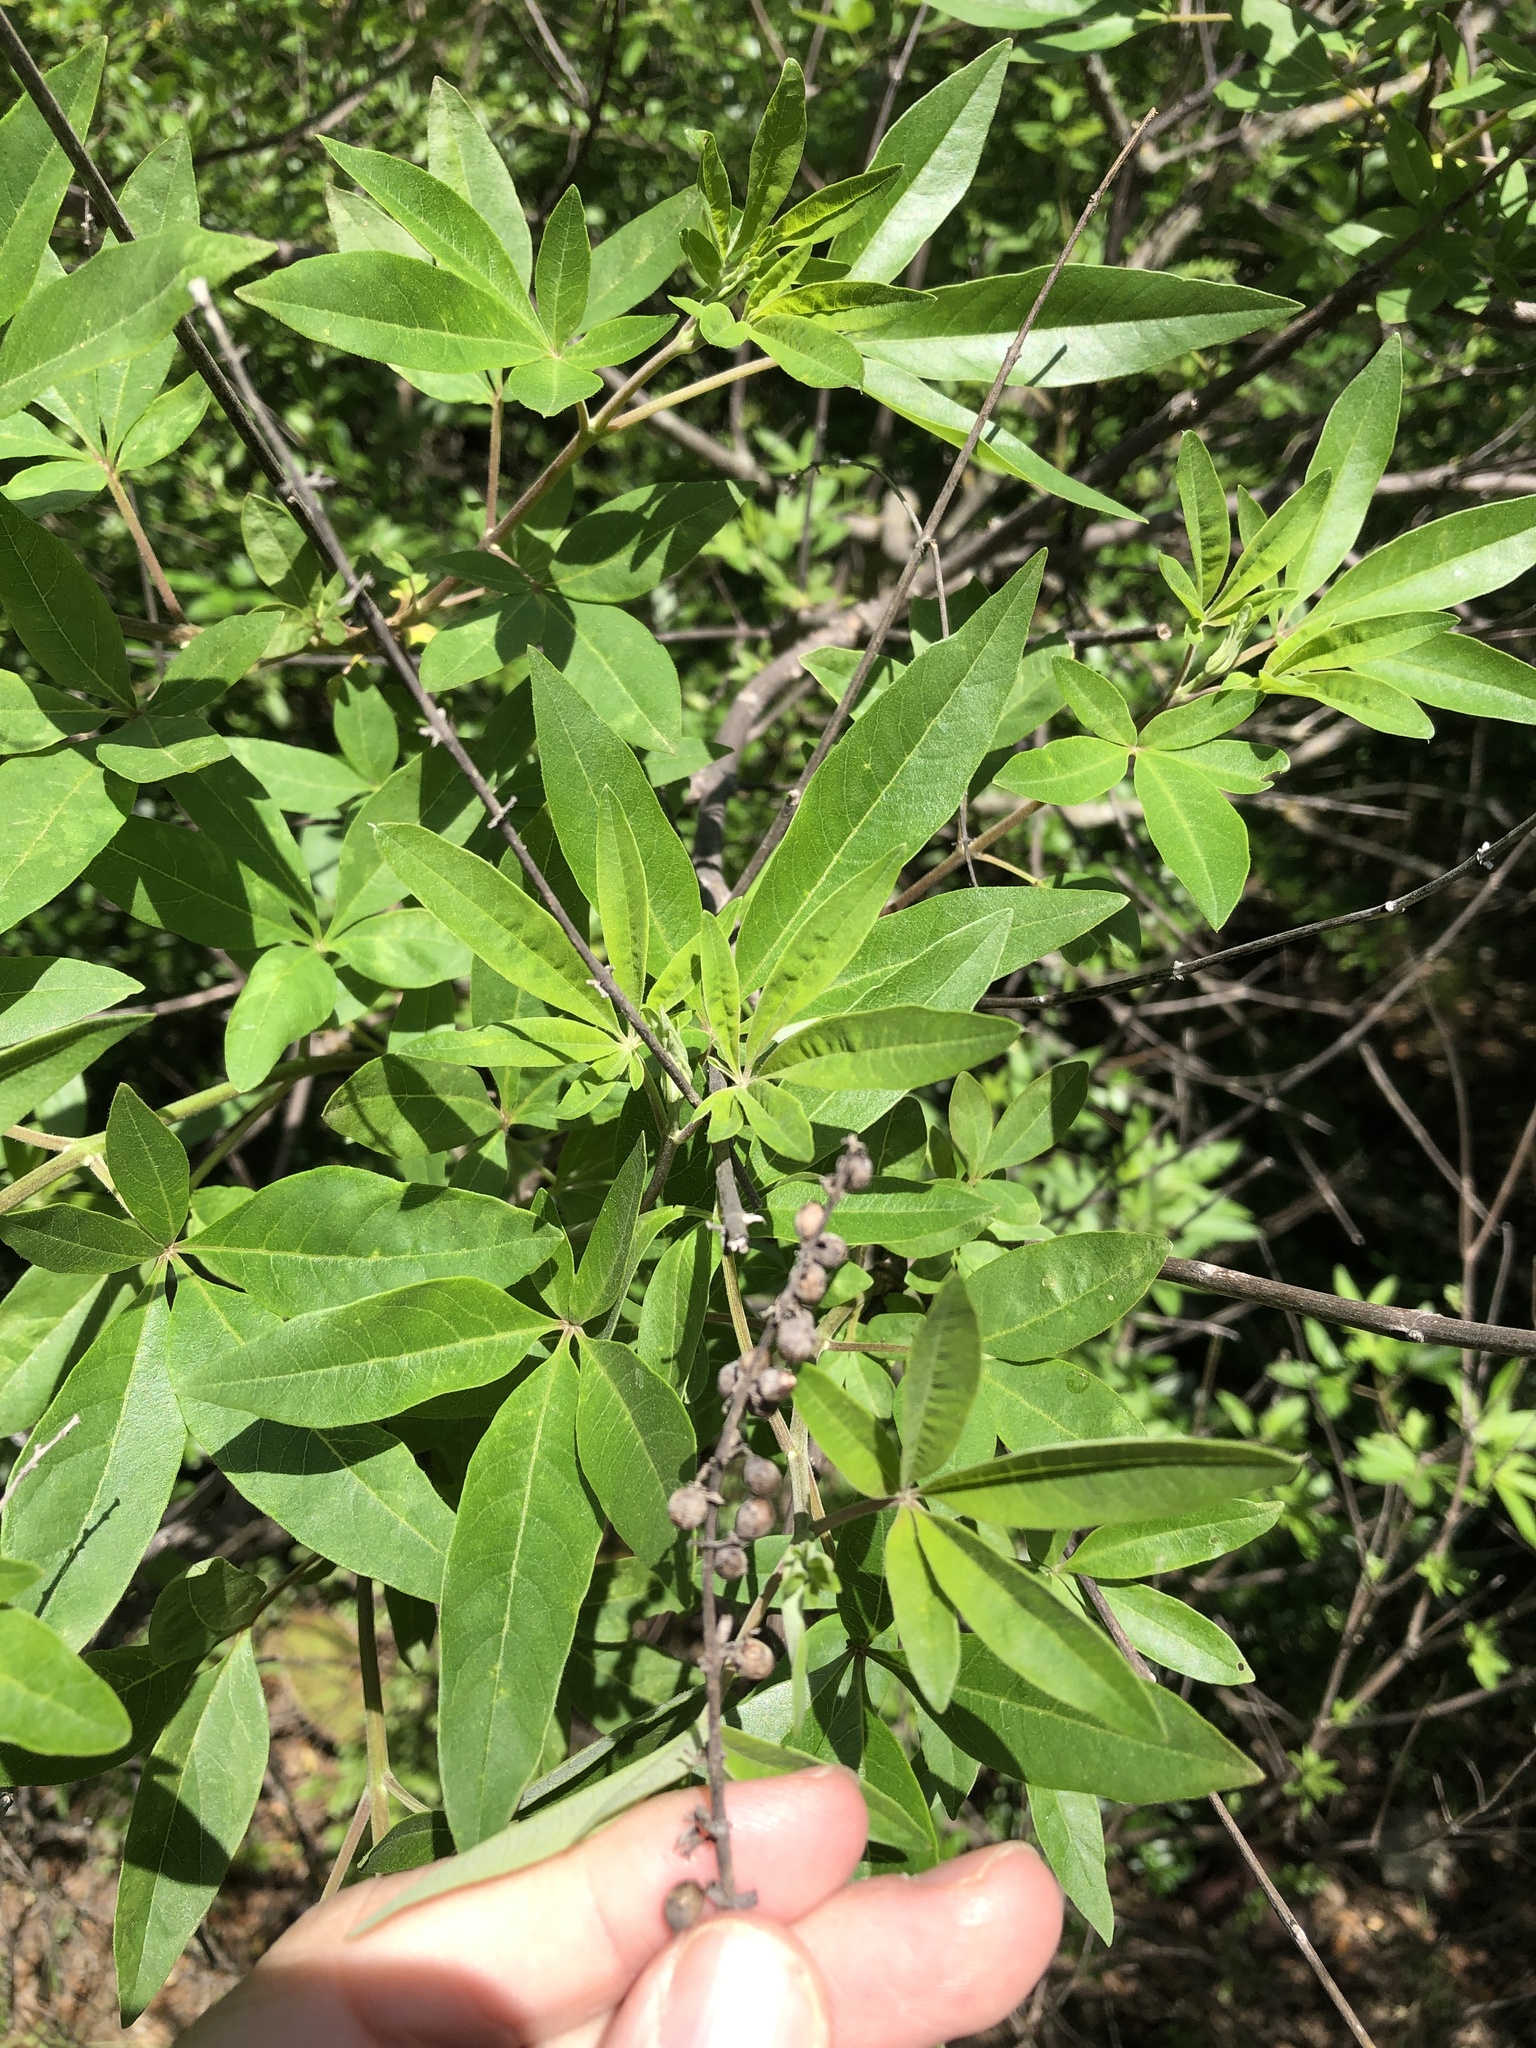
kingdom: Plantae
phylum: Tracheophyta
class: Magnoliopsida
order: Lamiales
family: Lamiaceae
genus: Vitex
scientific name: Vitex agnus-castus
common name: Chasteberry
